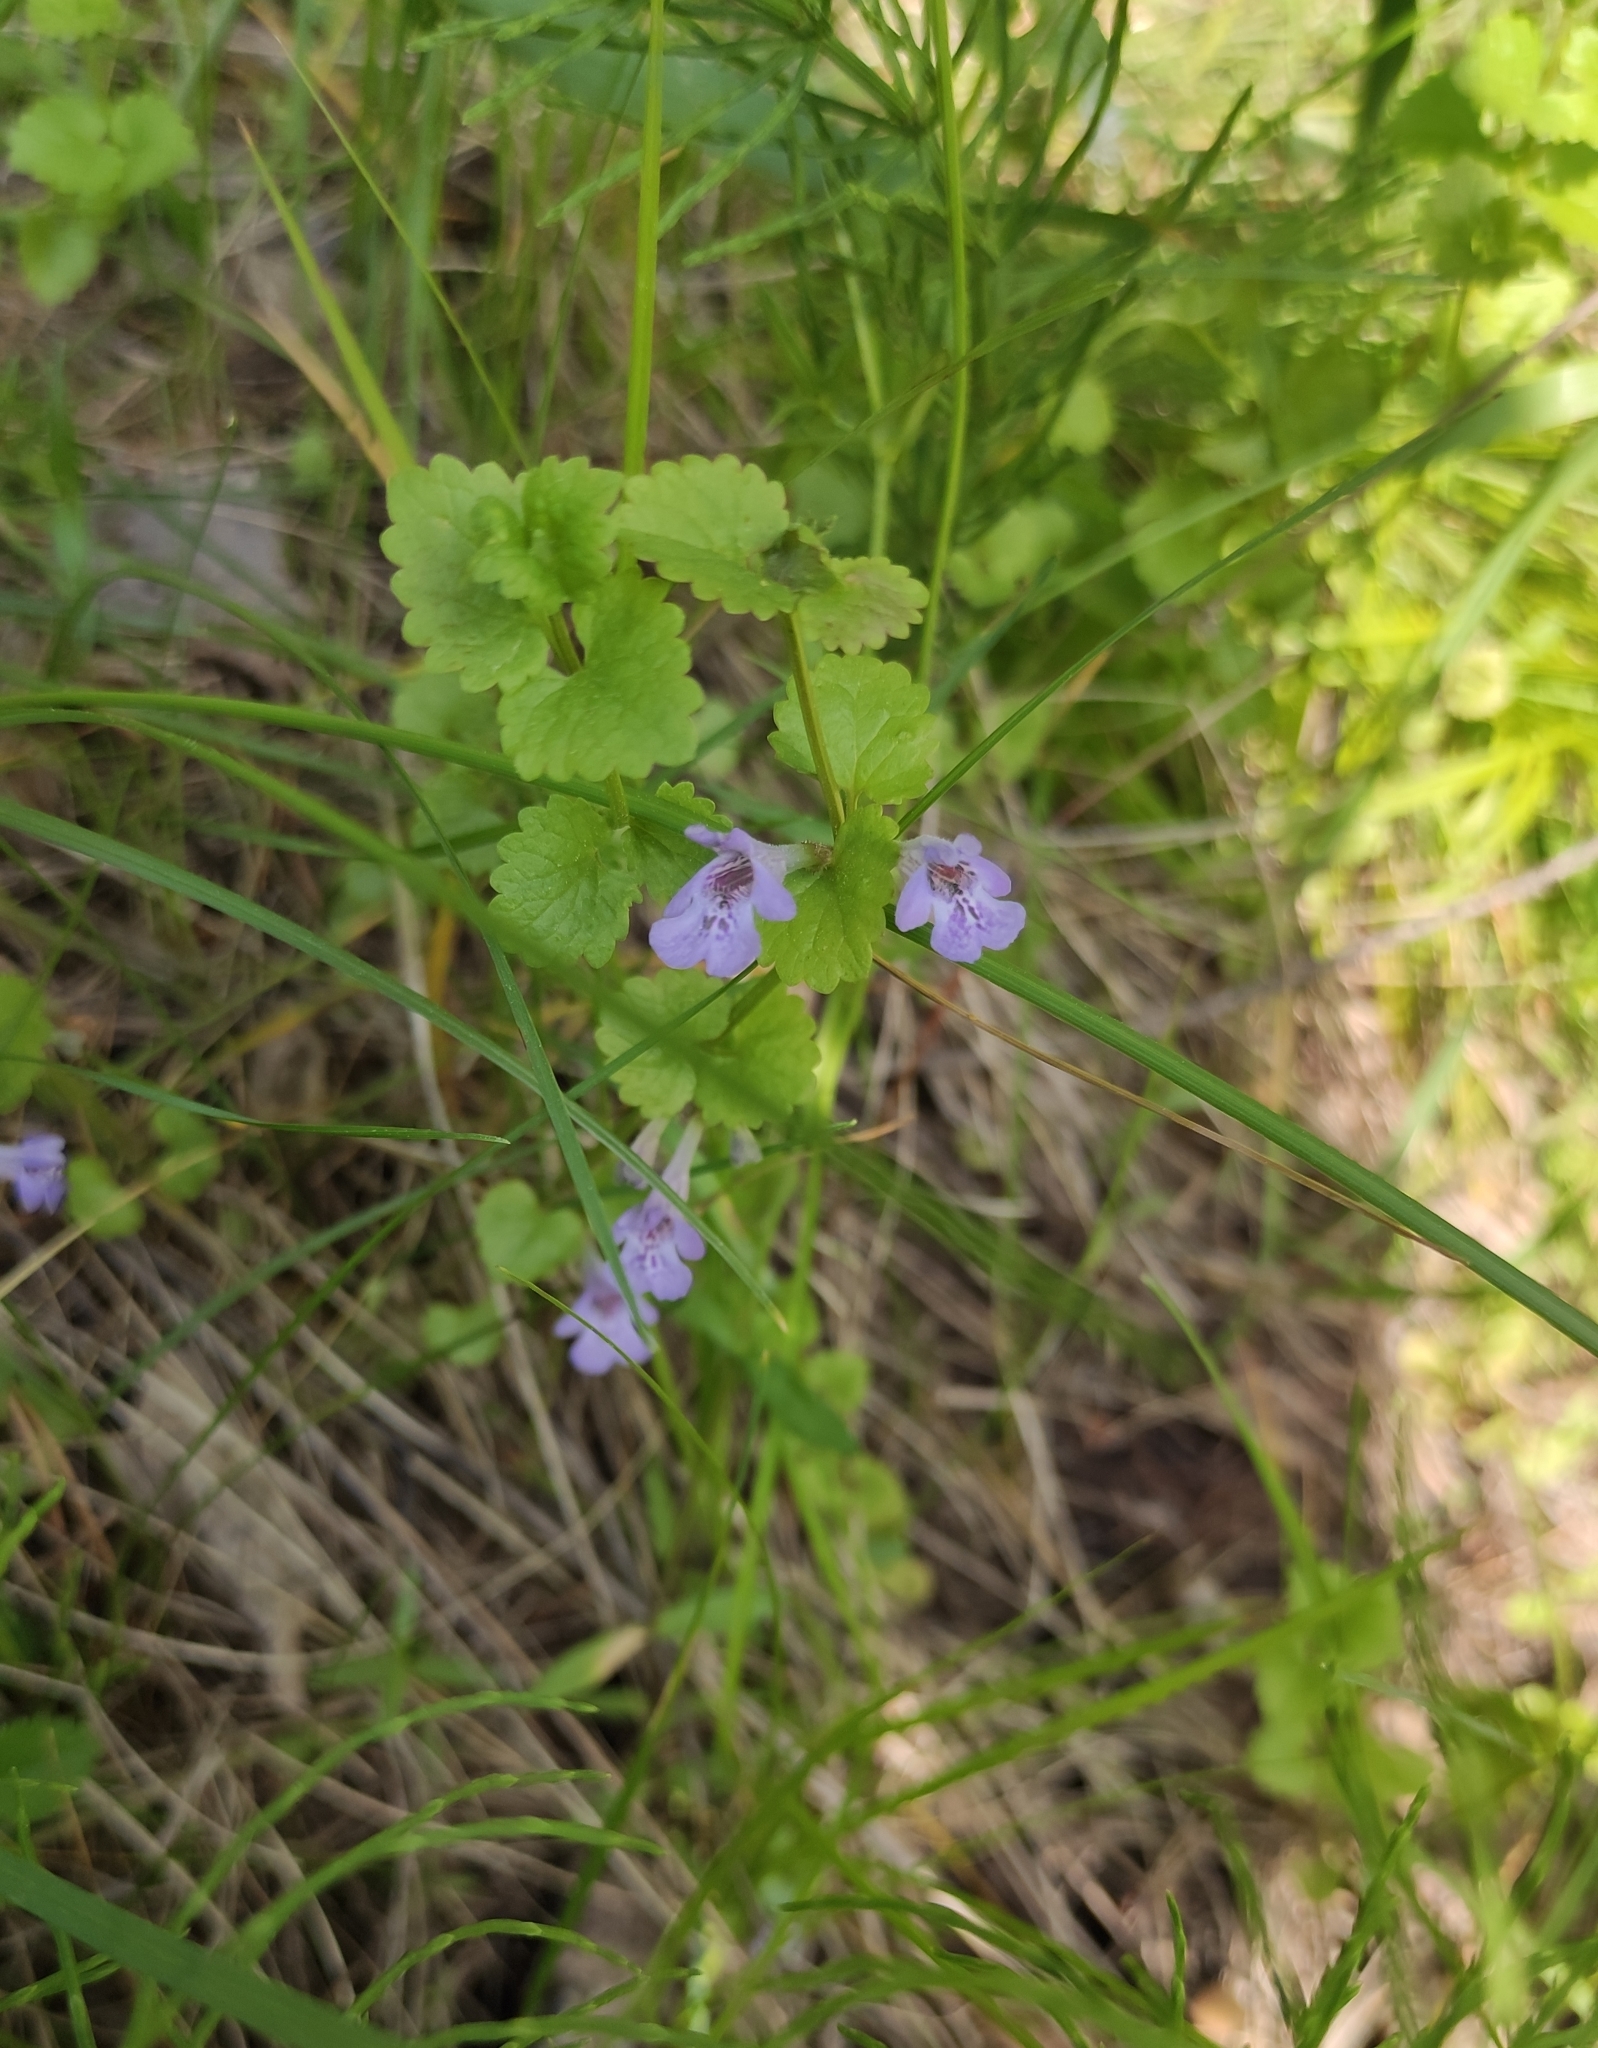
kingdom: Plantae
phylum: Tracheophyta
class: Magnoliopsida
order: Lamiales
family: Lamiaceae
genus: Glechoma
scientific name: Glechoma hederacea
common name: Ground ivy
